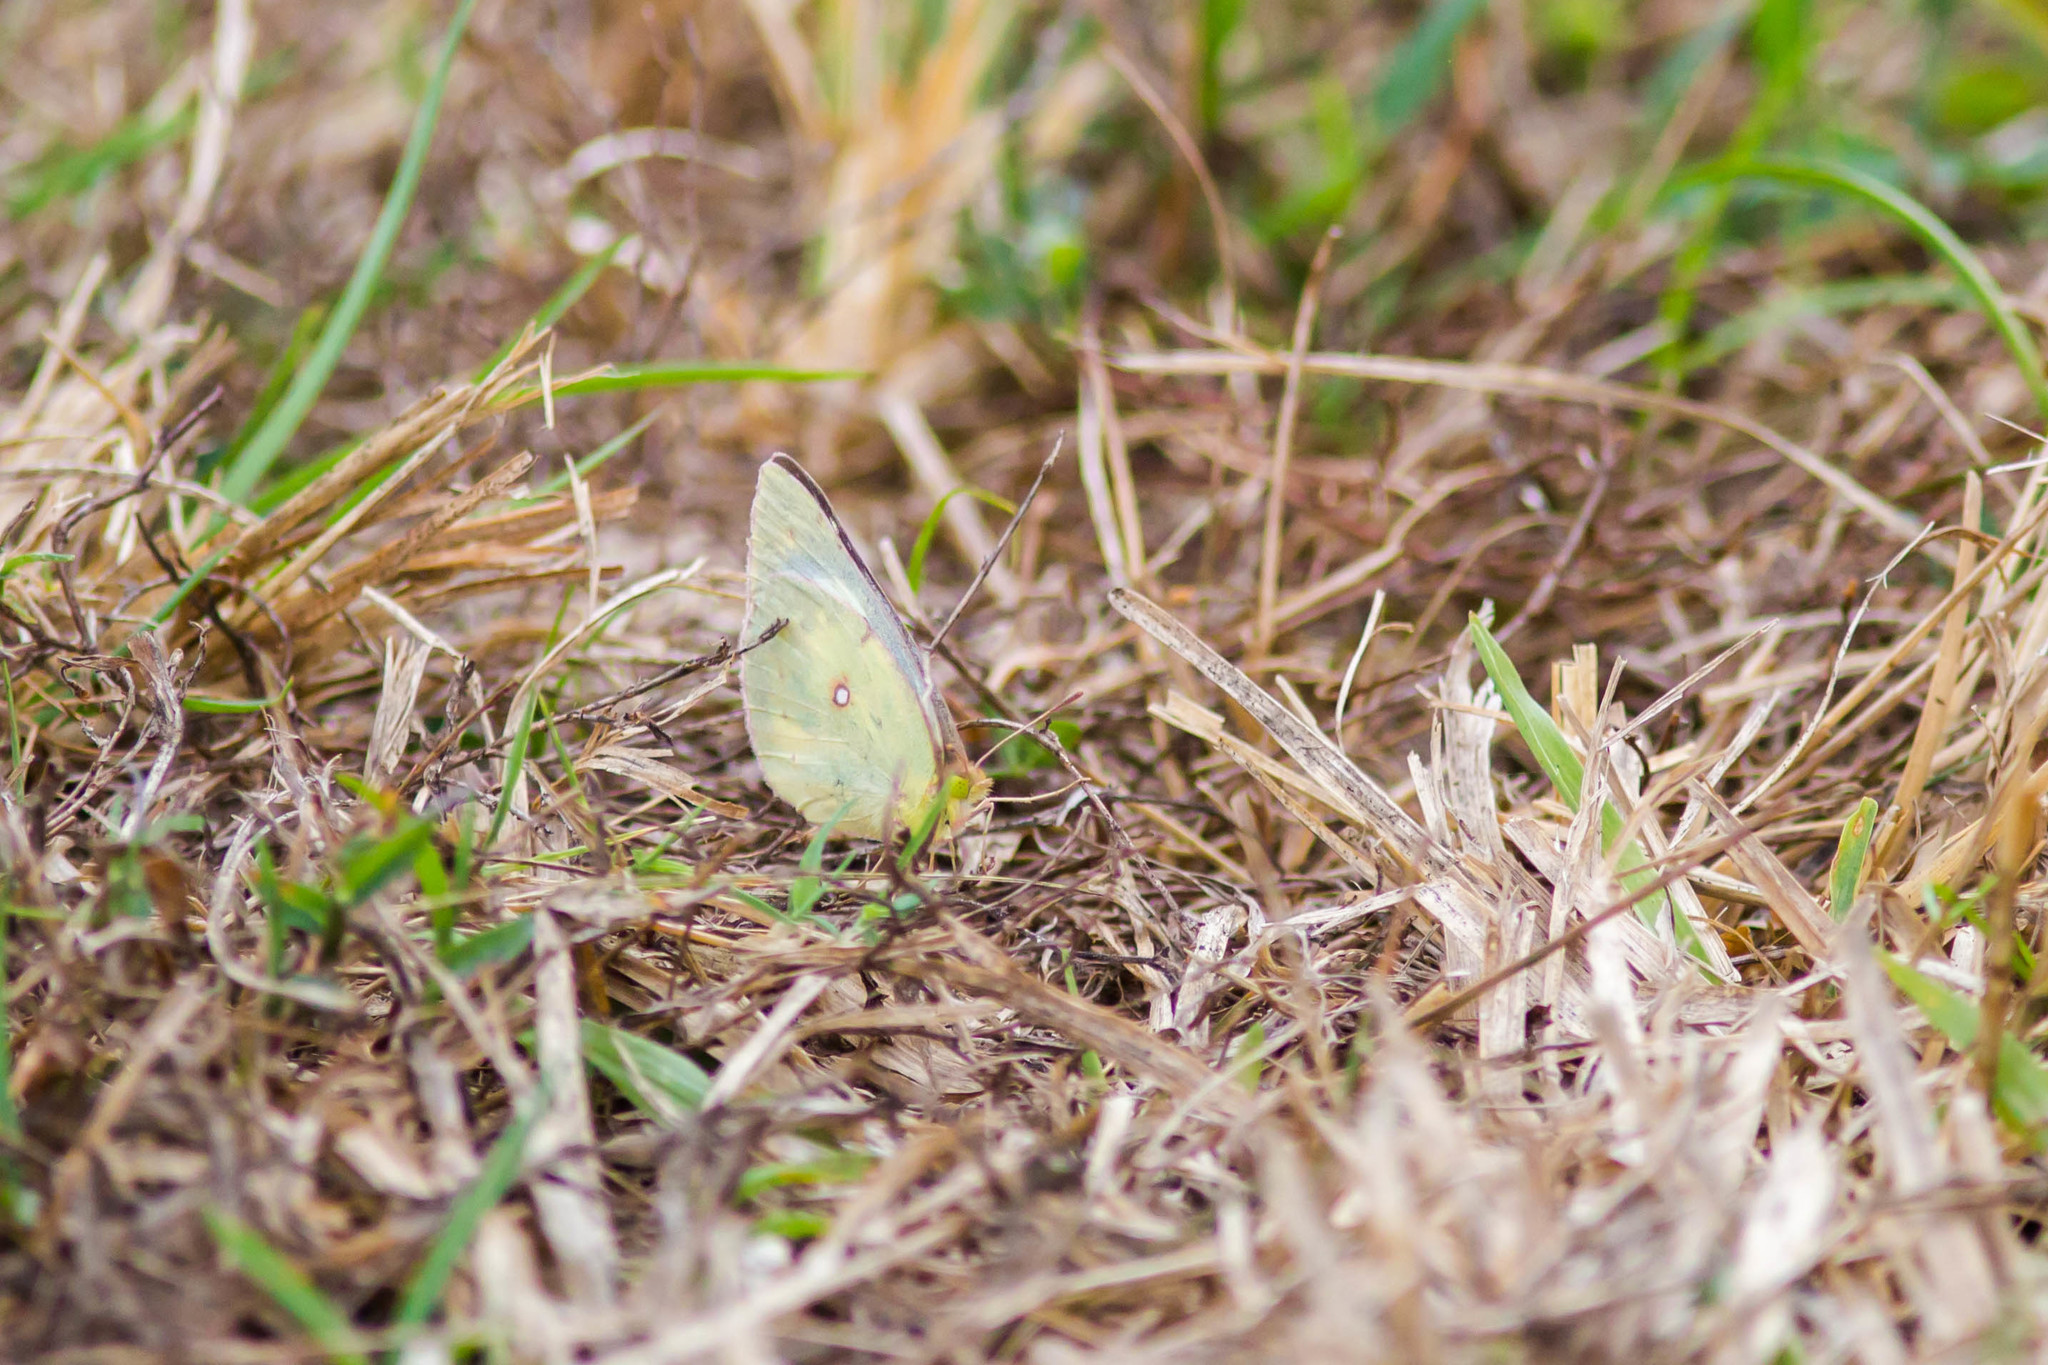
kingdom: Animalia
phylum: Arthropoda
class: Insecta
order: Lepidoptera
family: Pieridae
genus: Colias
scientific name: Colias eurytheme
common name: Alfalfa butterfly
